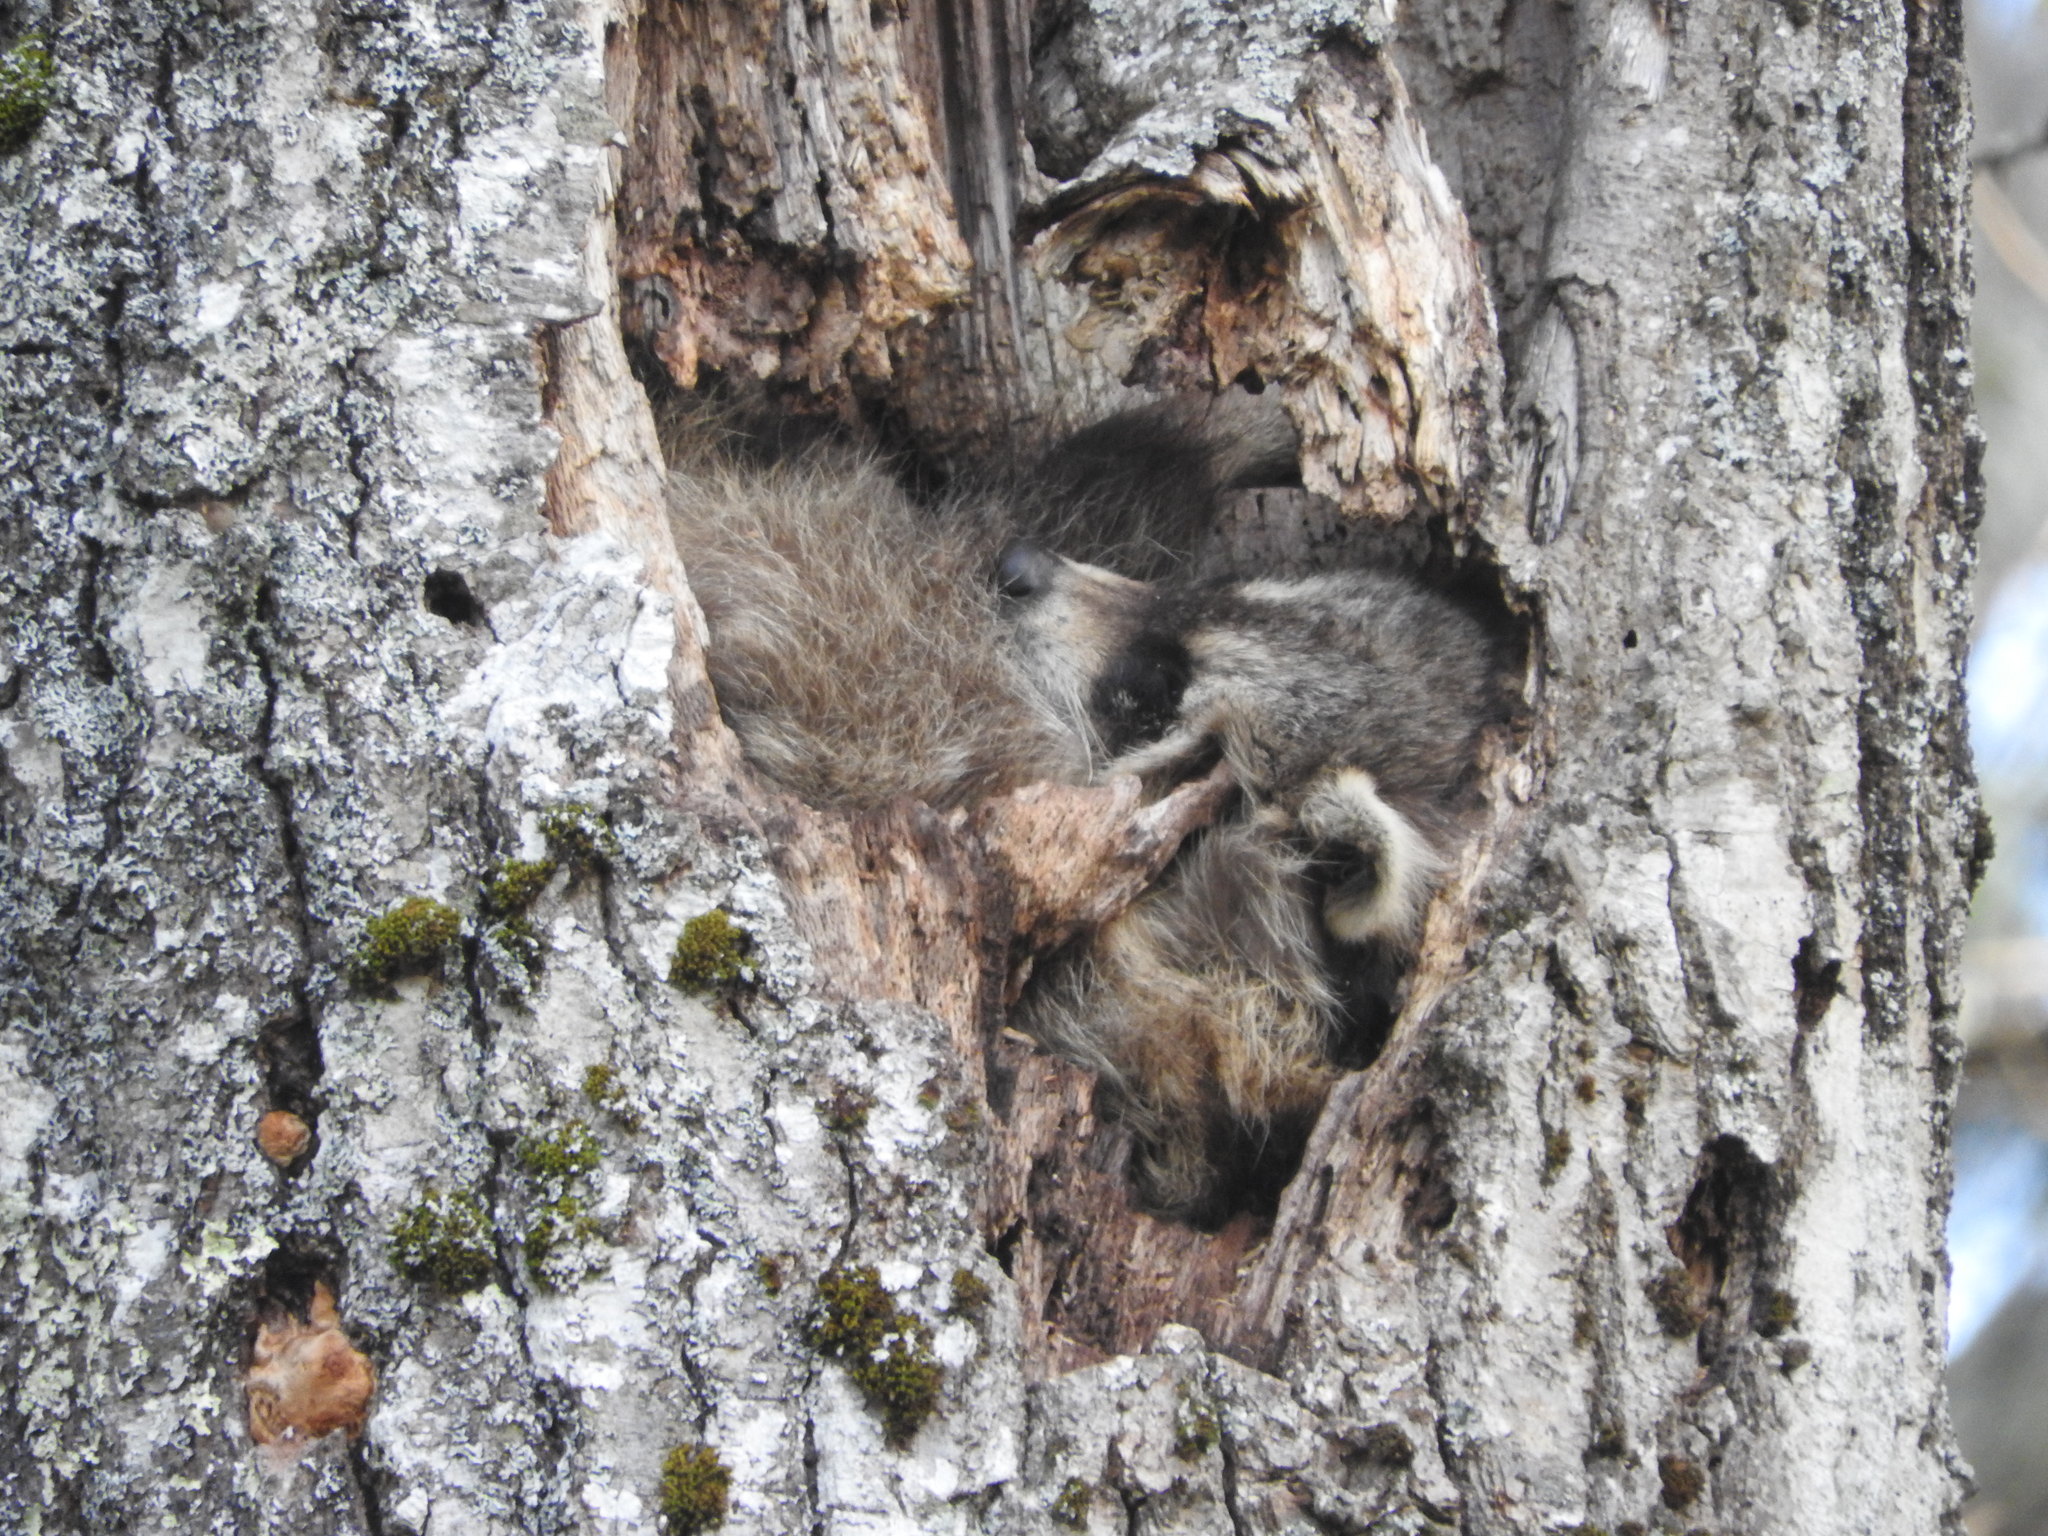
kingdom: Animalia
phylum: Chordata
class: Mammalia
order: Carnivora
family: Procyonidae
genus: Procyon
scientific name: Procyon lotor
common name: Raccoon
